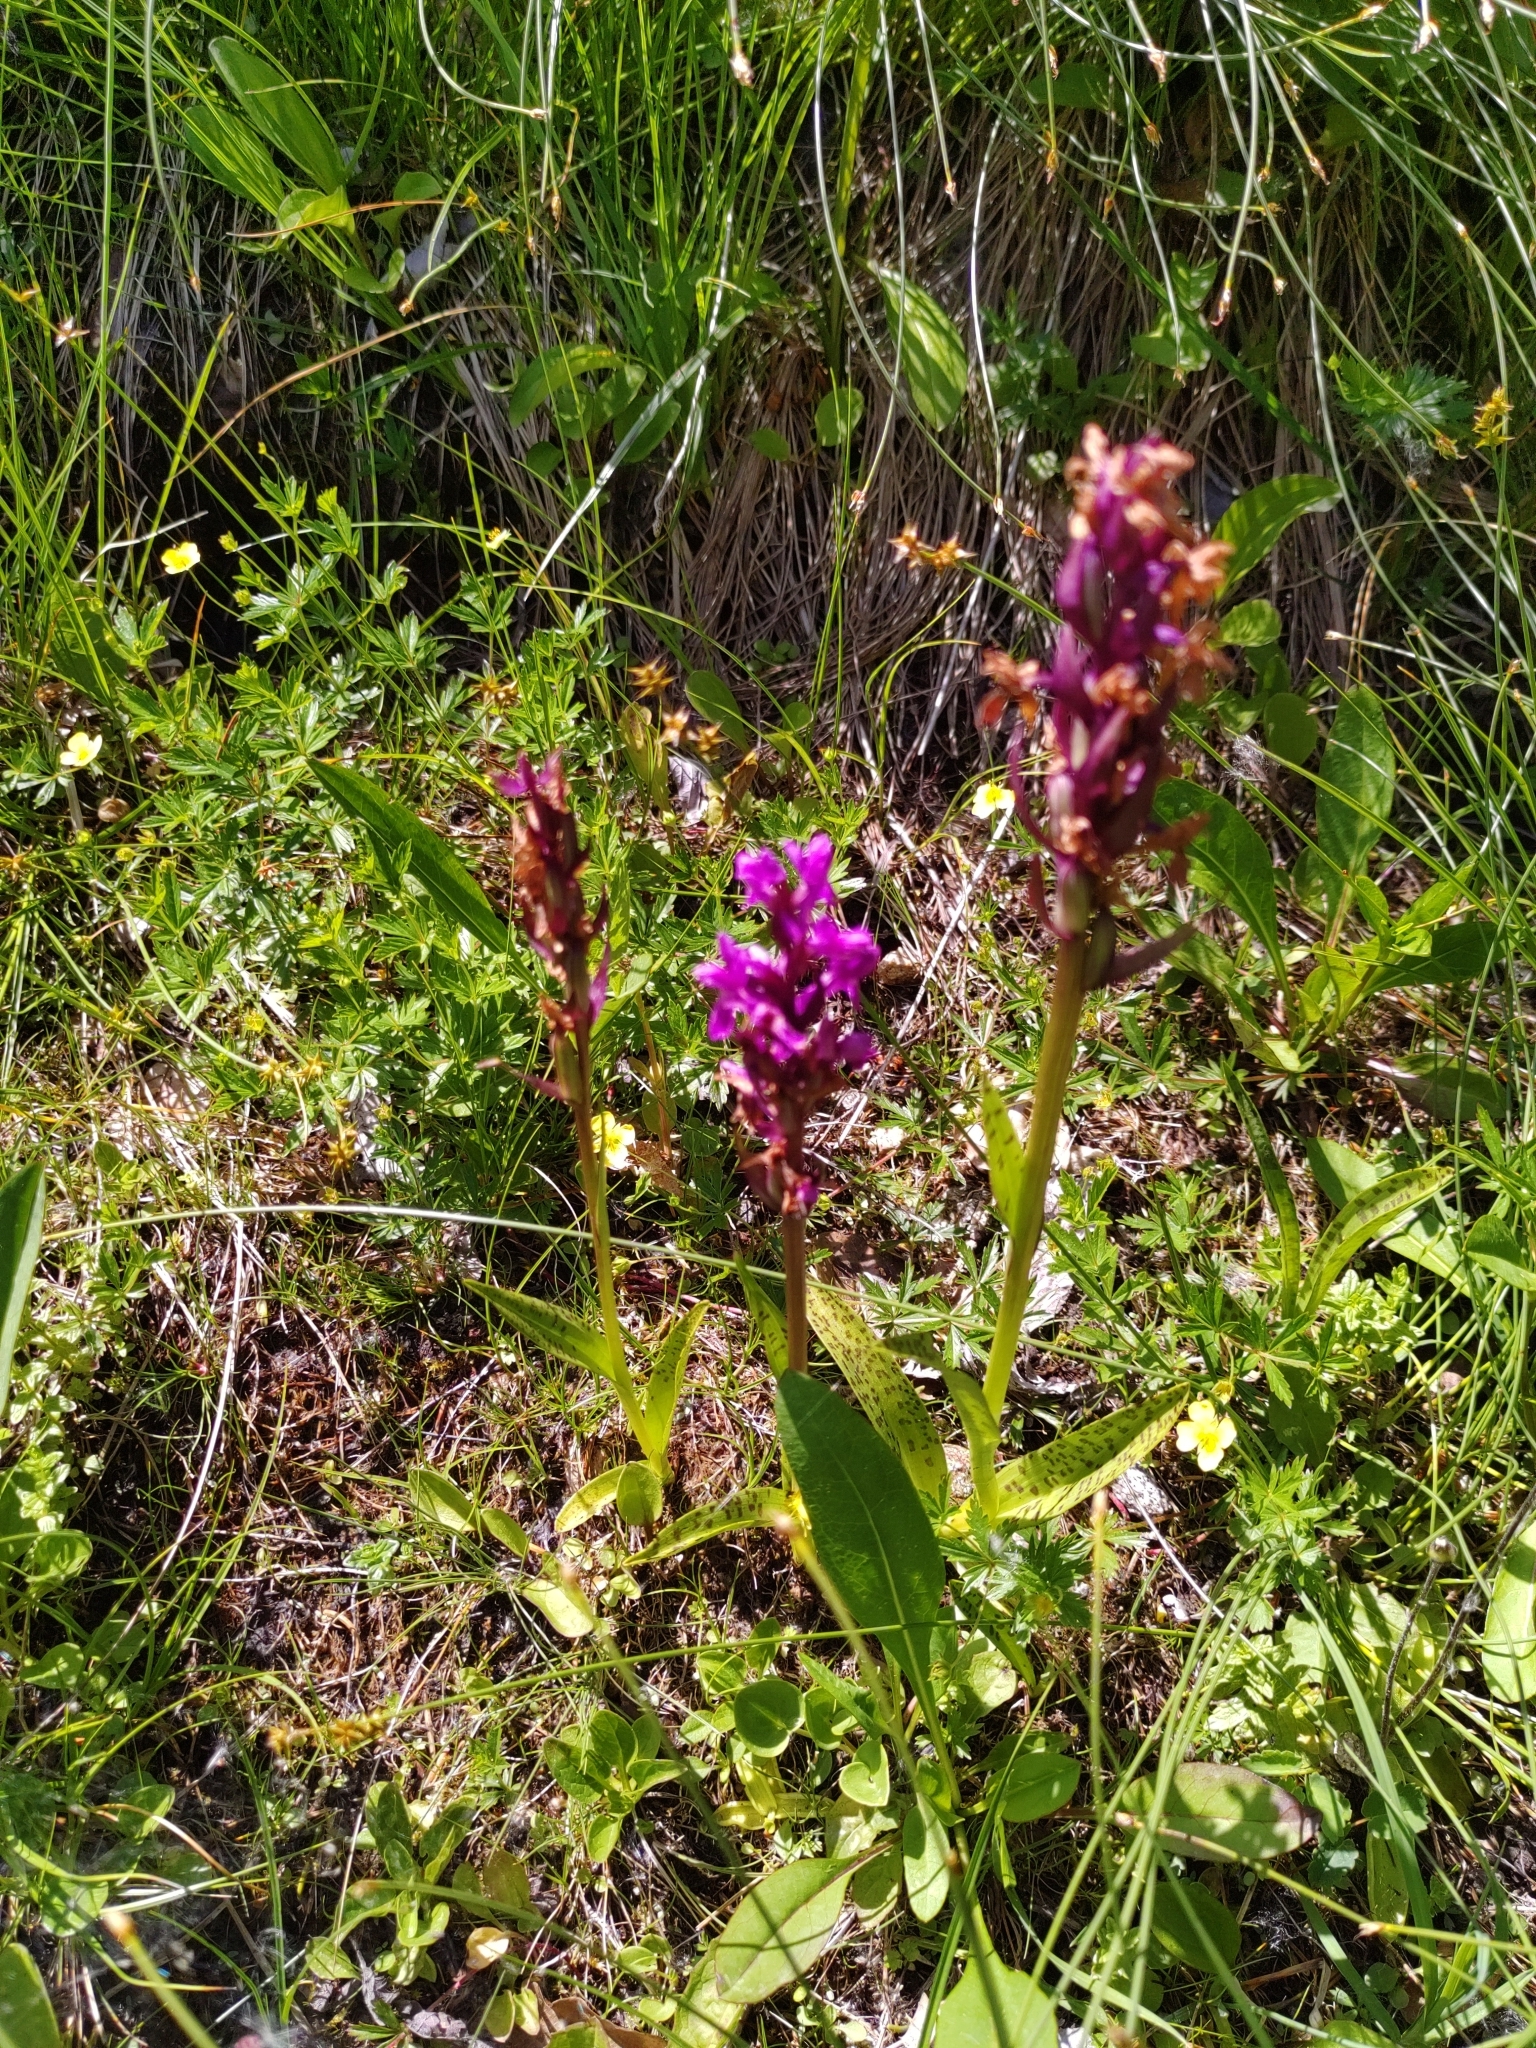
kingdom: Plantae
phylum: Tracheophyta
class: Liliopsida
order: Asparagales
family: Orchidaceae
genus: Dactylorhiza
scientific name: Dactylorhiza majalis
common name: Marsh orchid
